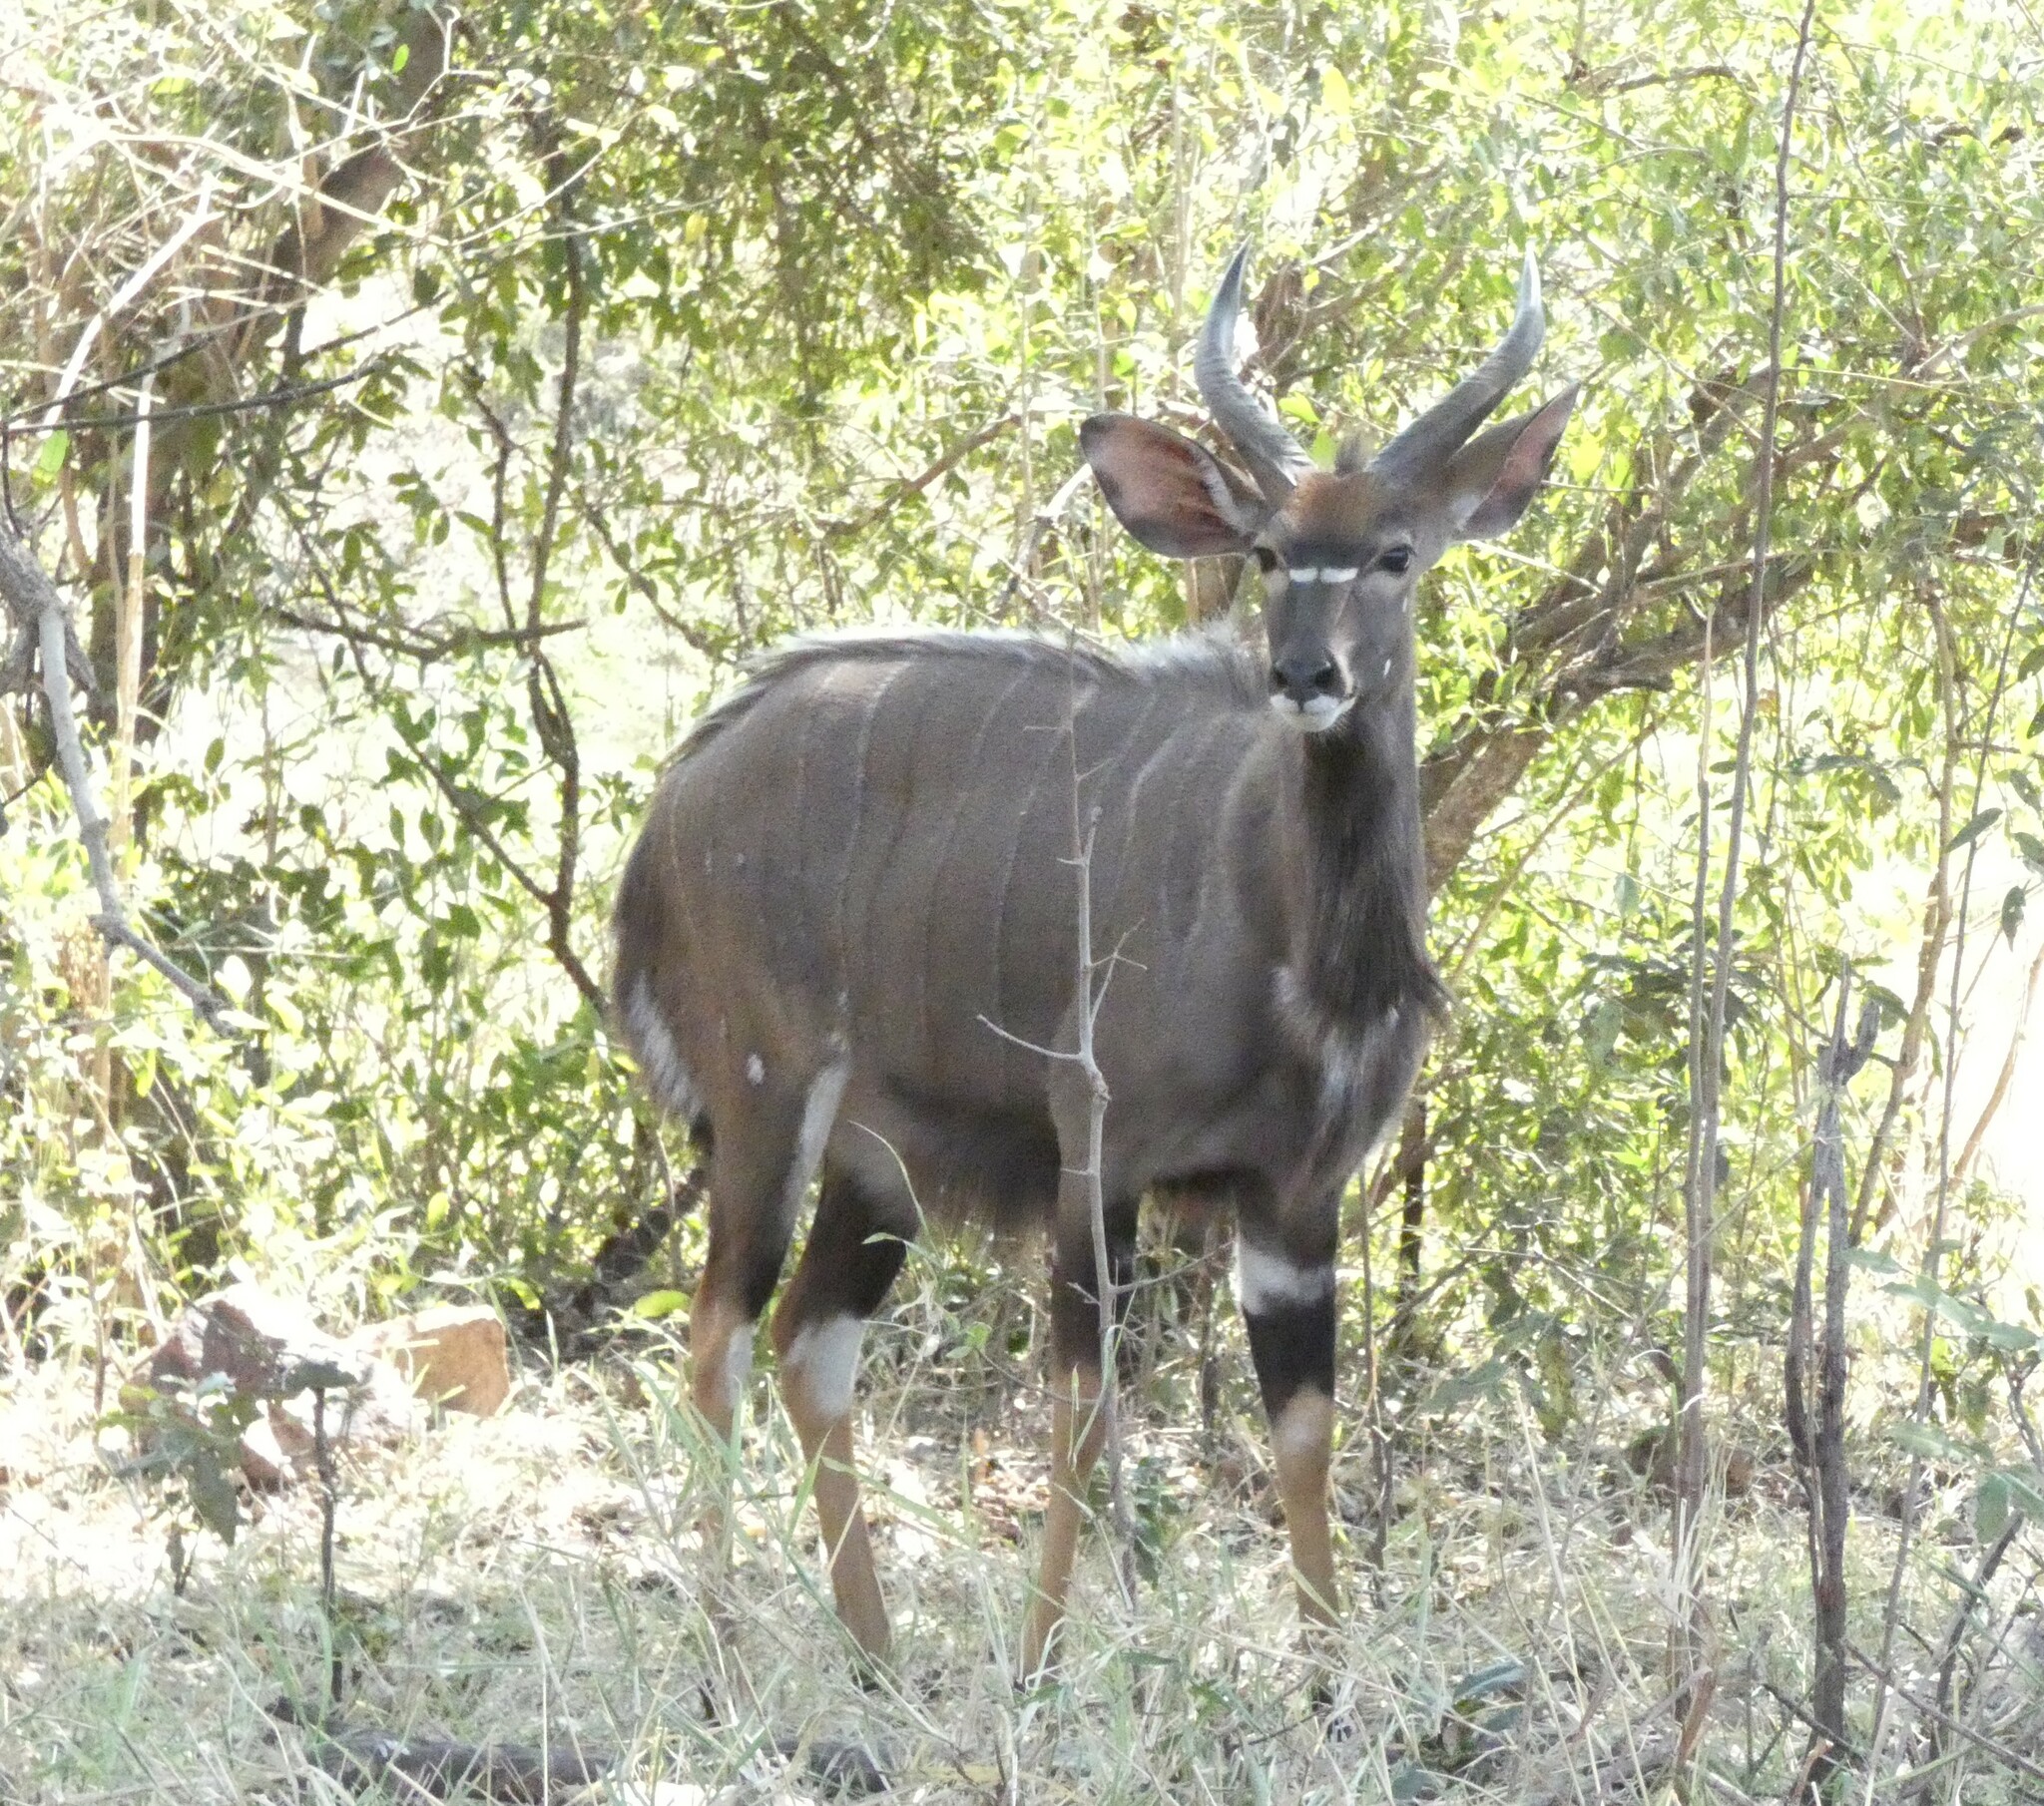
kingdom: Animalia
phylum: Chordata
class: Mammalia
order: Artiodactyla
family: Bovidae
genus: Tragelaphus
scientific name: Tragelaphus angasii
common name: Nyala
